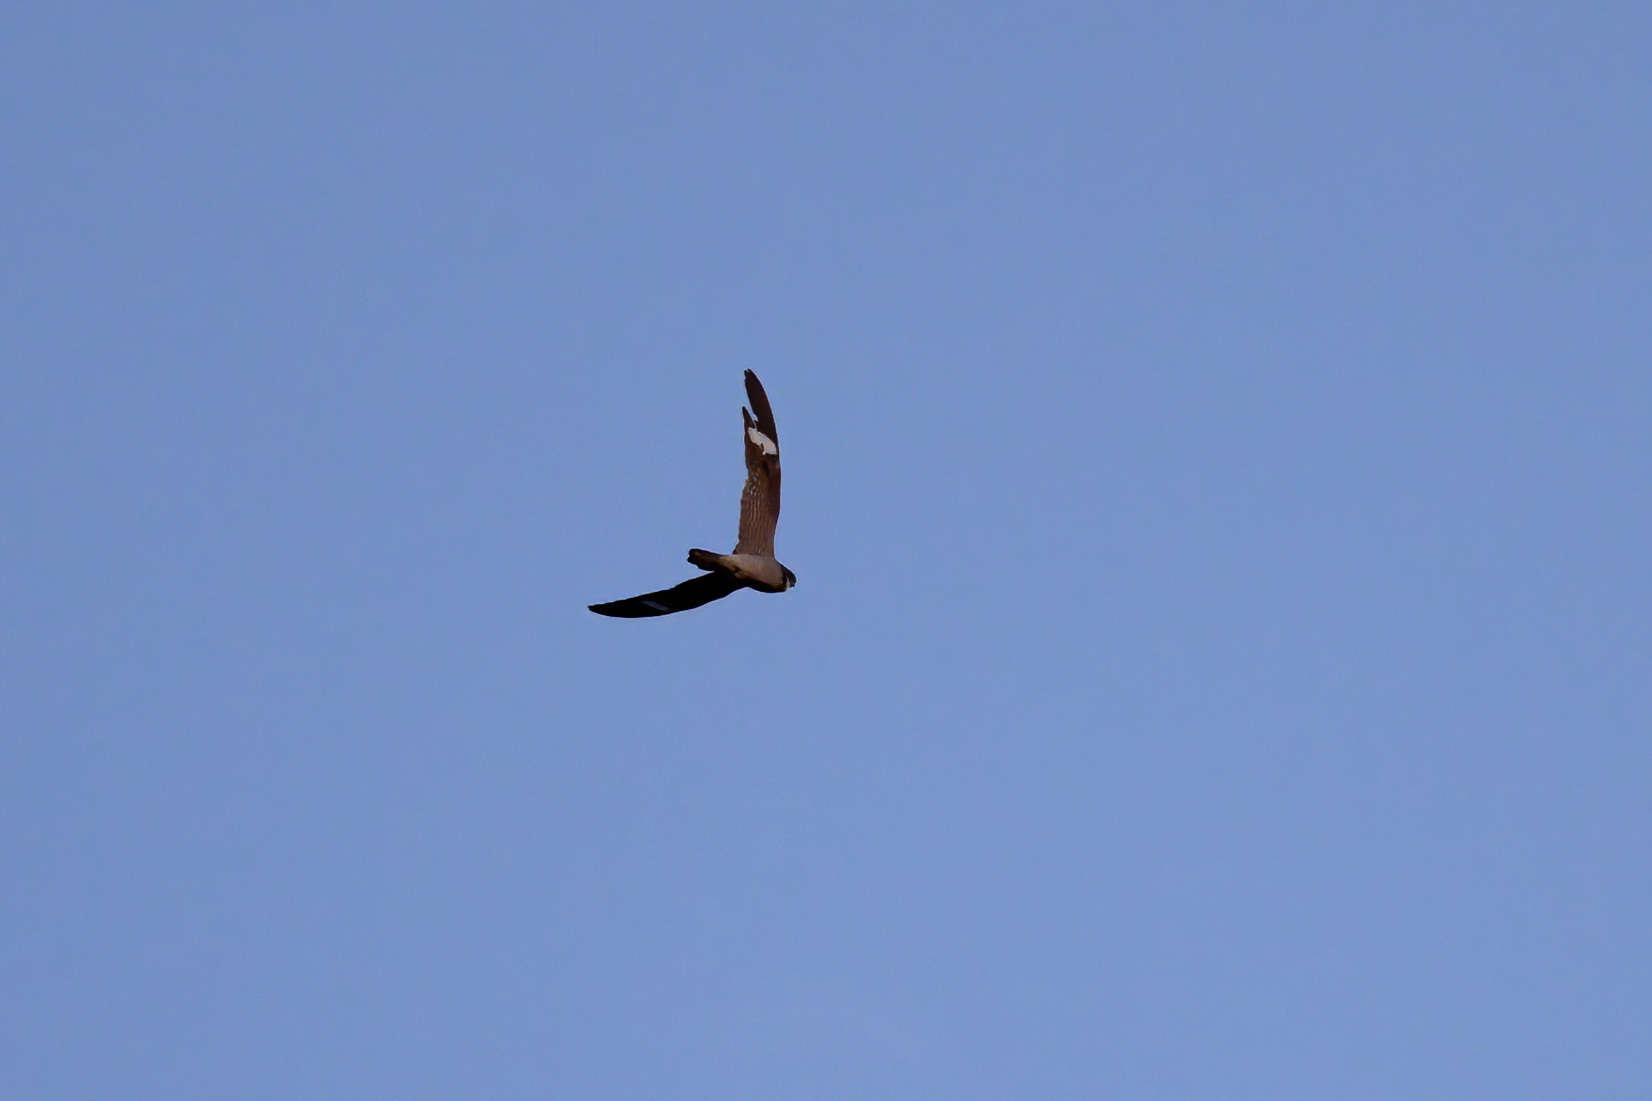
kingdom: Animalia
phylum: Chordata
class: Aves
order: Caprimulgiformes
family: Caprimulgidae
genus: Chordeiles
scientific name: Chordeiles minor
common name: Common nighthawk
